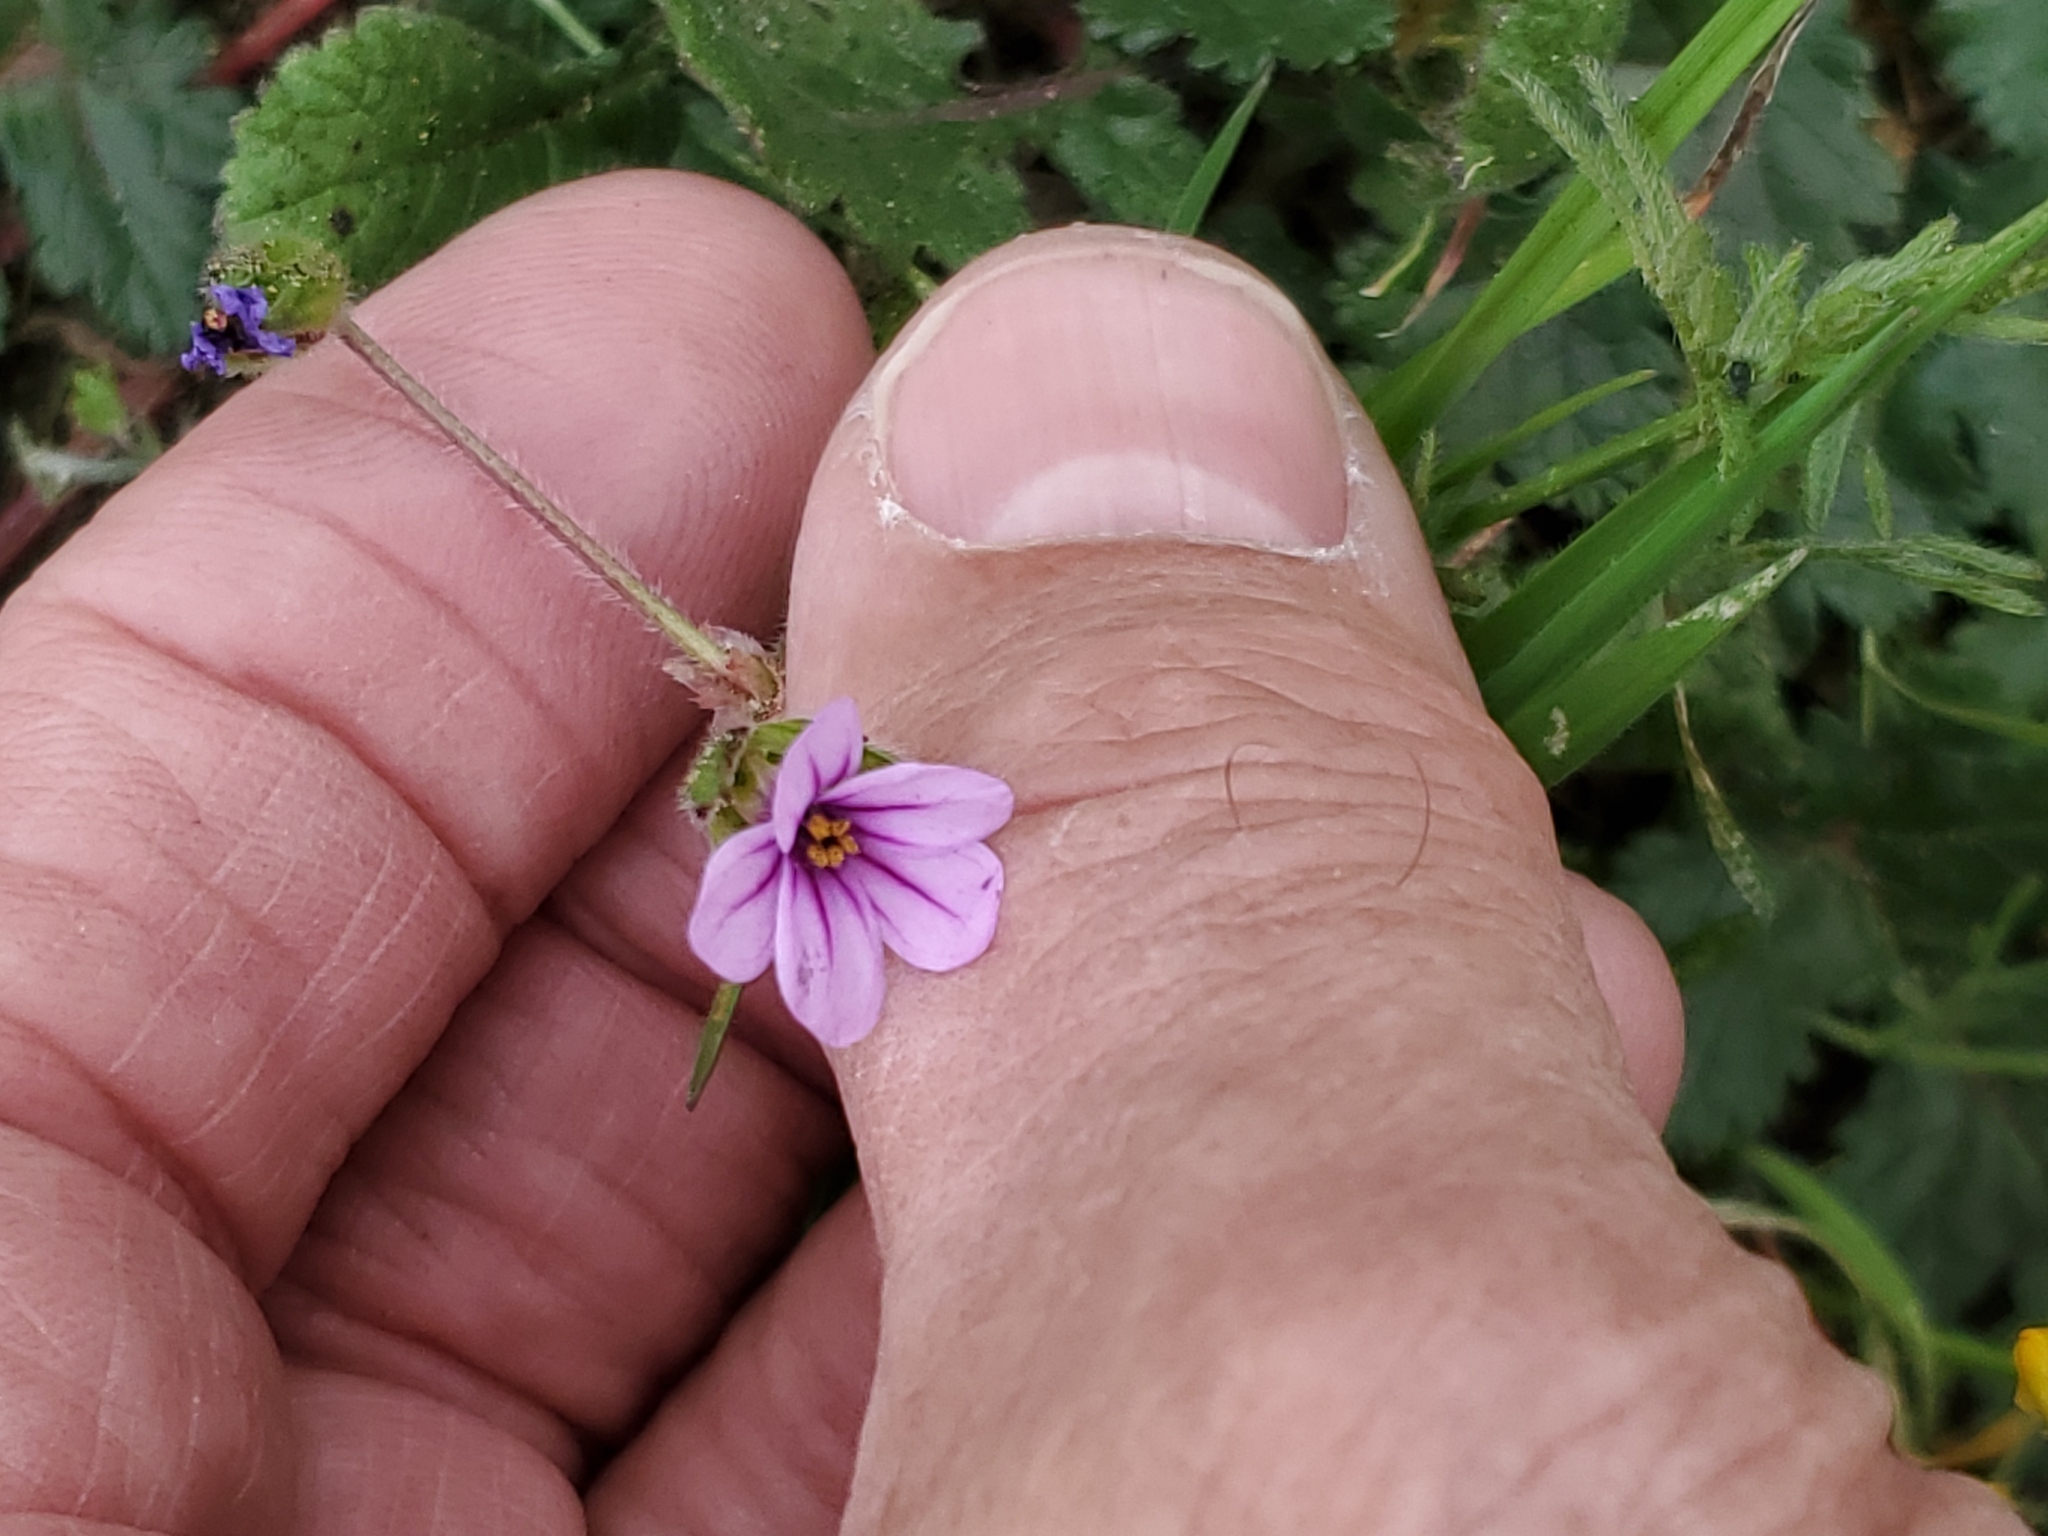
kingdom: Plantae
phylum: Tracheophyta
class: Magnoliopsida
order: Geraniales
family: Geraniaceae
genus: Erodium
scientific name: Erodium botrys
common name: Mediterranean stork's-bill
